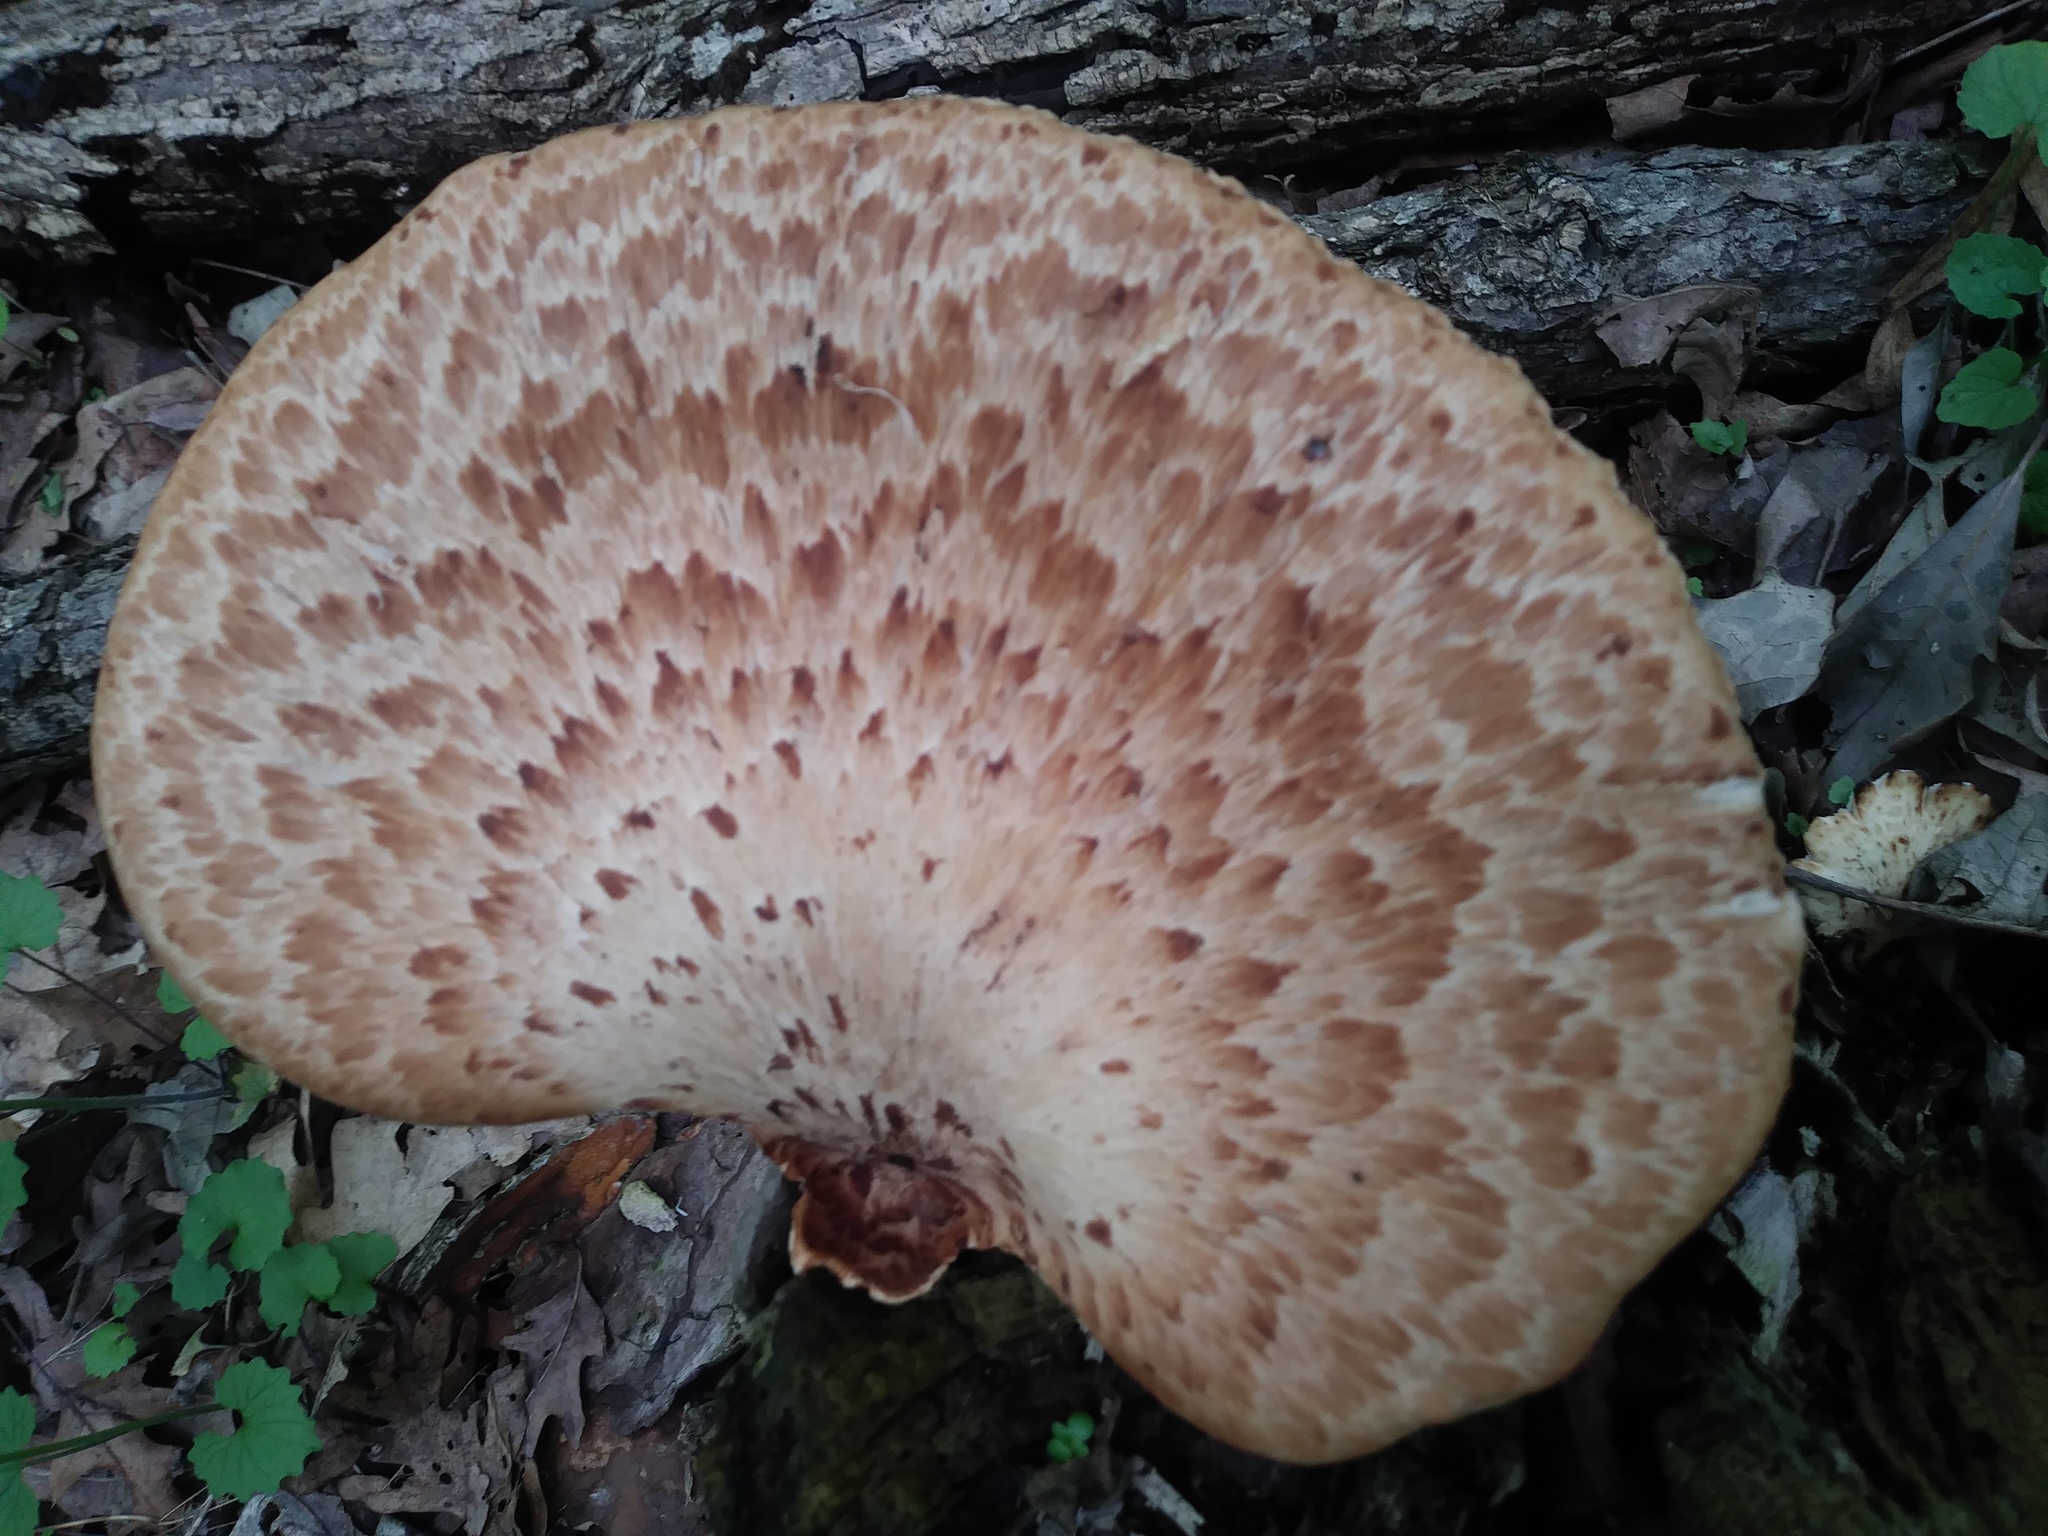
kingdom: Fungi
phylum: Basidiomycota
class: Agaricomycetes
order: Polyporales
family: Polyporaceae
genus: Cerioporus
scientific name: Cerioporus squamosus
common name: Dryad's saddle
